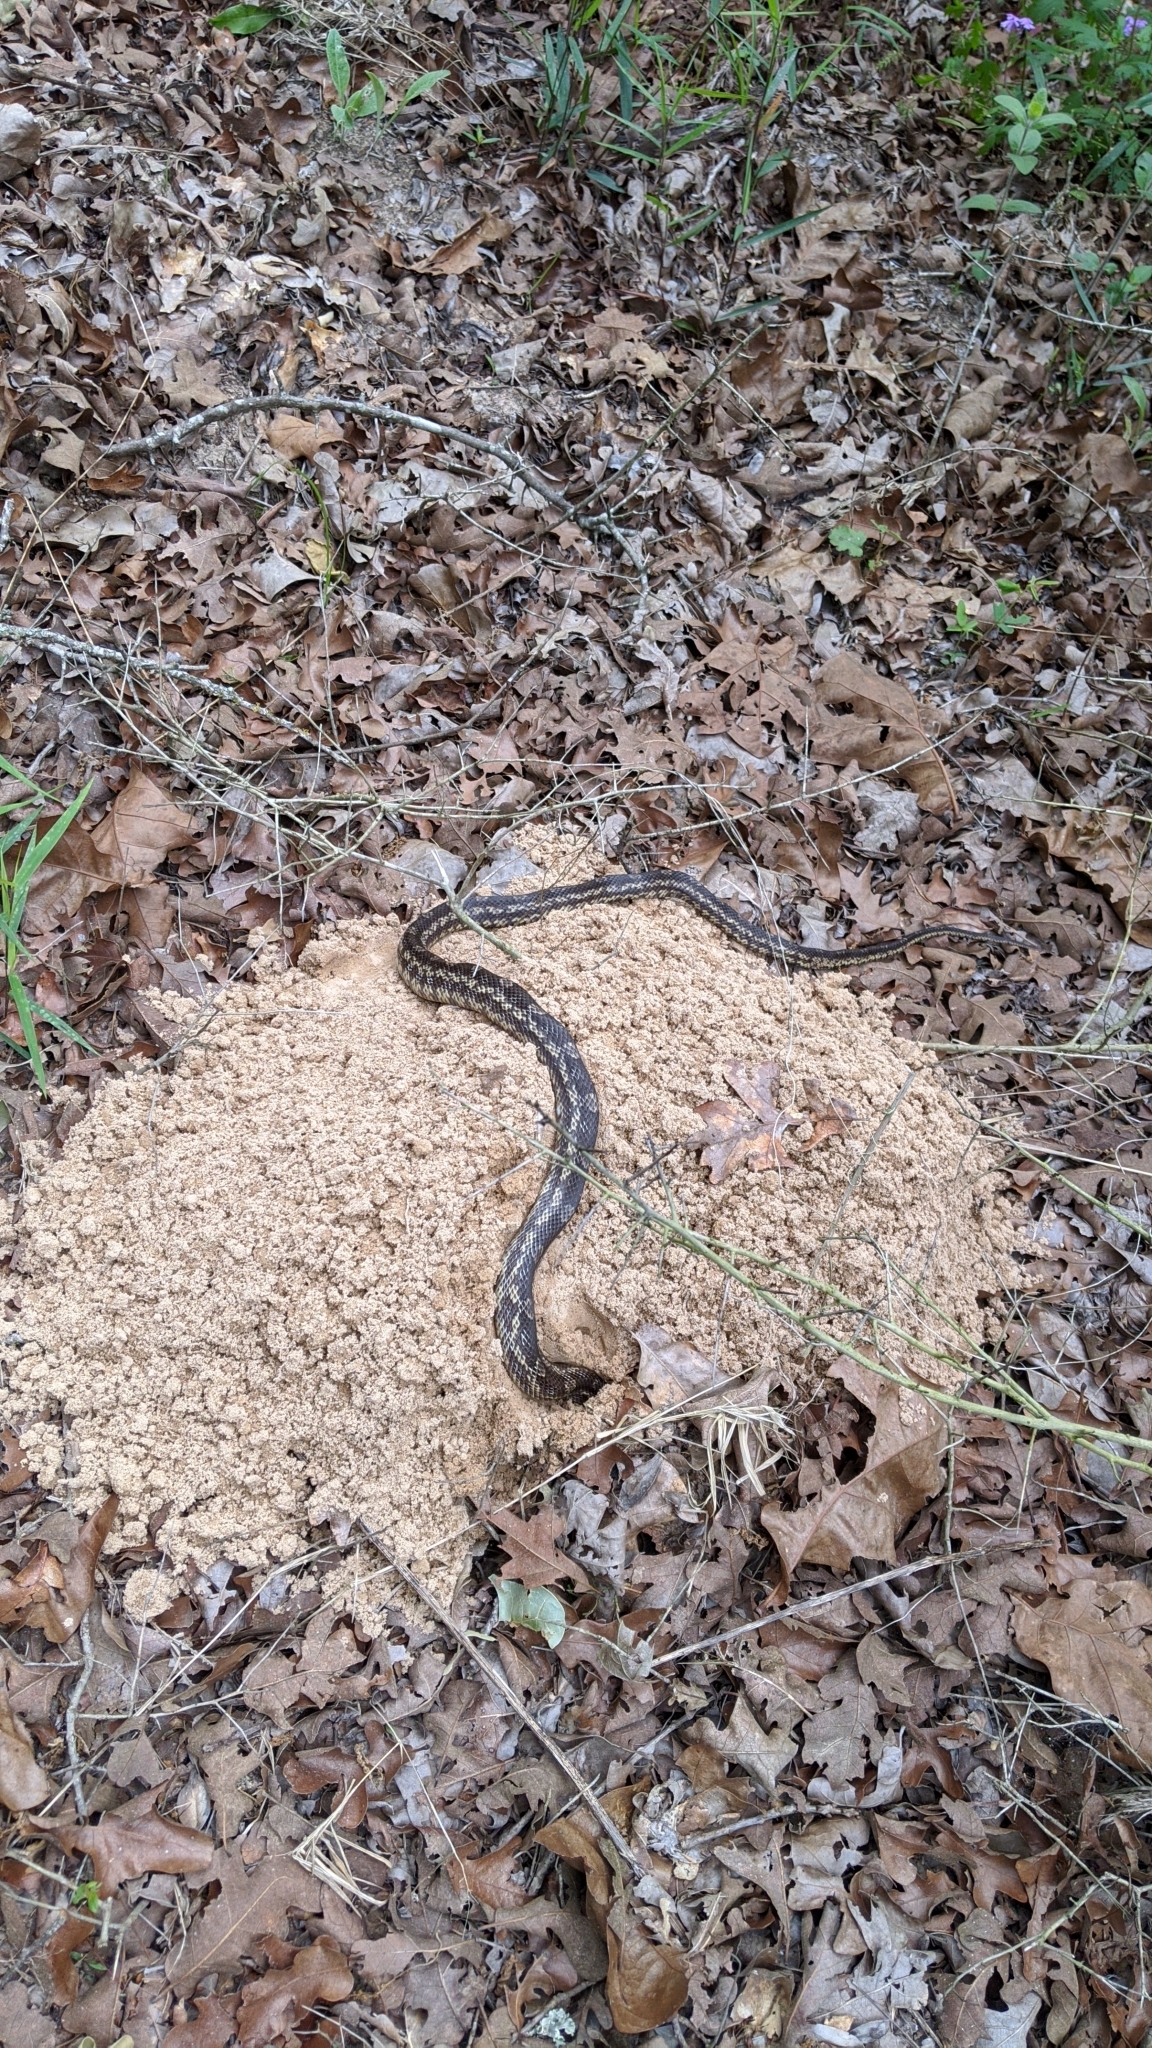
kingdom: Animalia
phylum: Chordata
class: Squamata
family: Colubridae
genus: Pantherophis
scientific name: Pantherophis obsoletus
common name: Black rat snake
